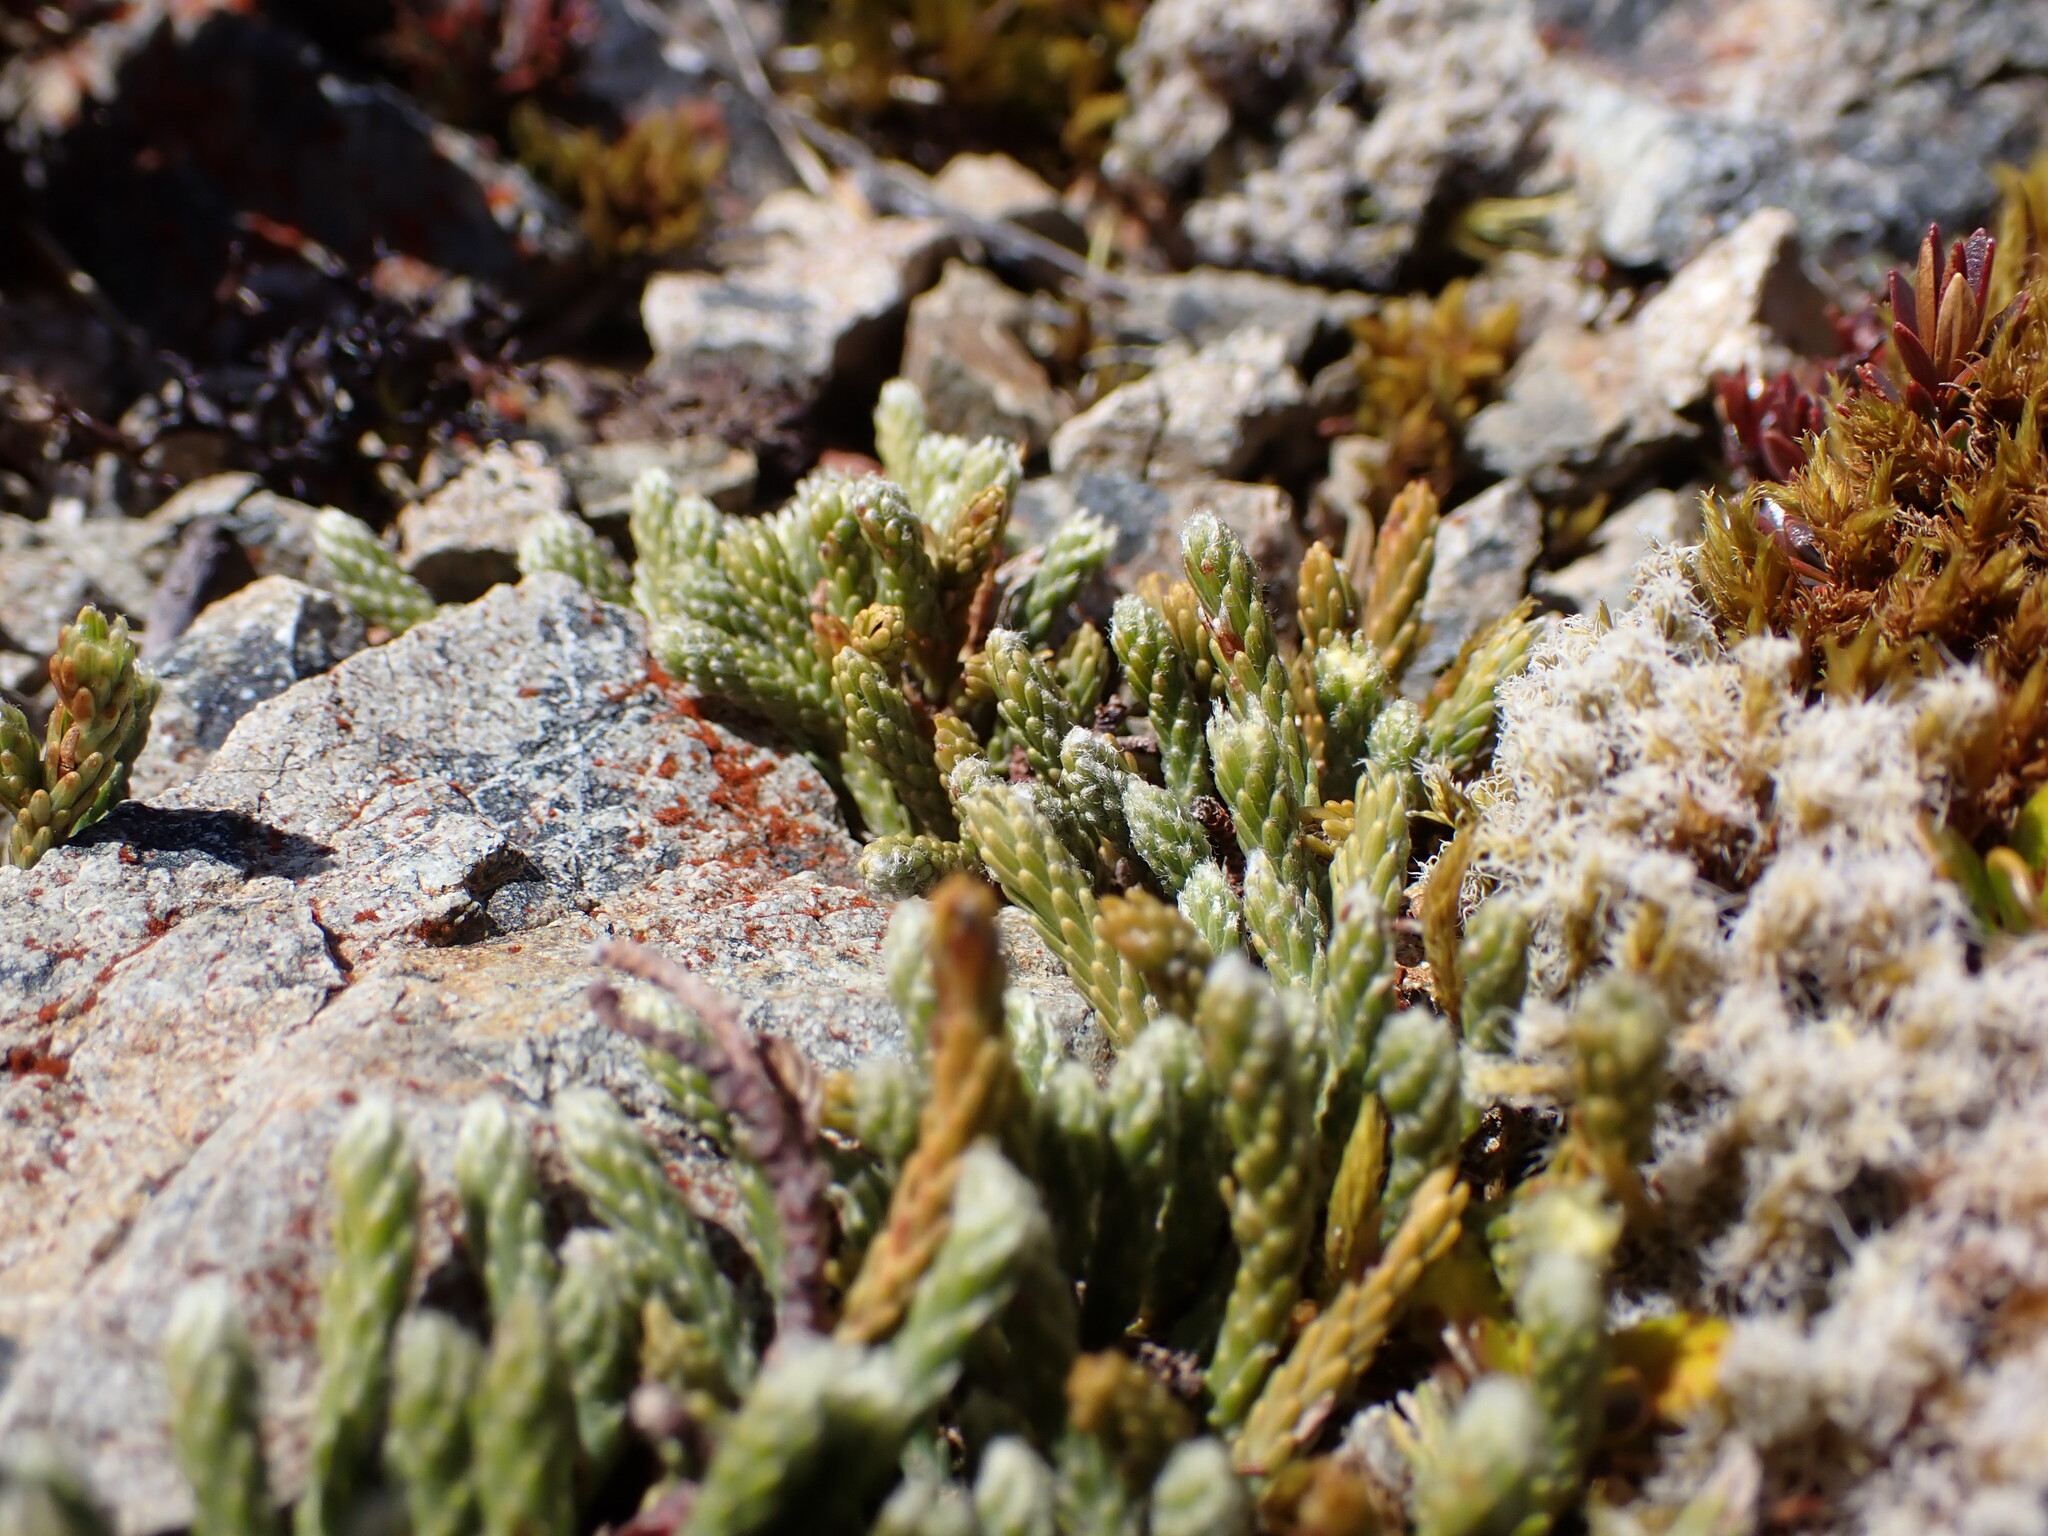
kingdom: Plantae
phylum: Tracheophyta
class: Magnoliopsida
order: Malvales
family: Thymelaeaceae
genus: Kelleria
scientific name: Kelleria dieffenbachii
